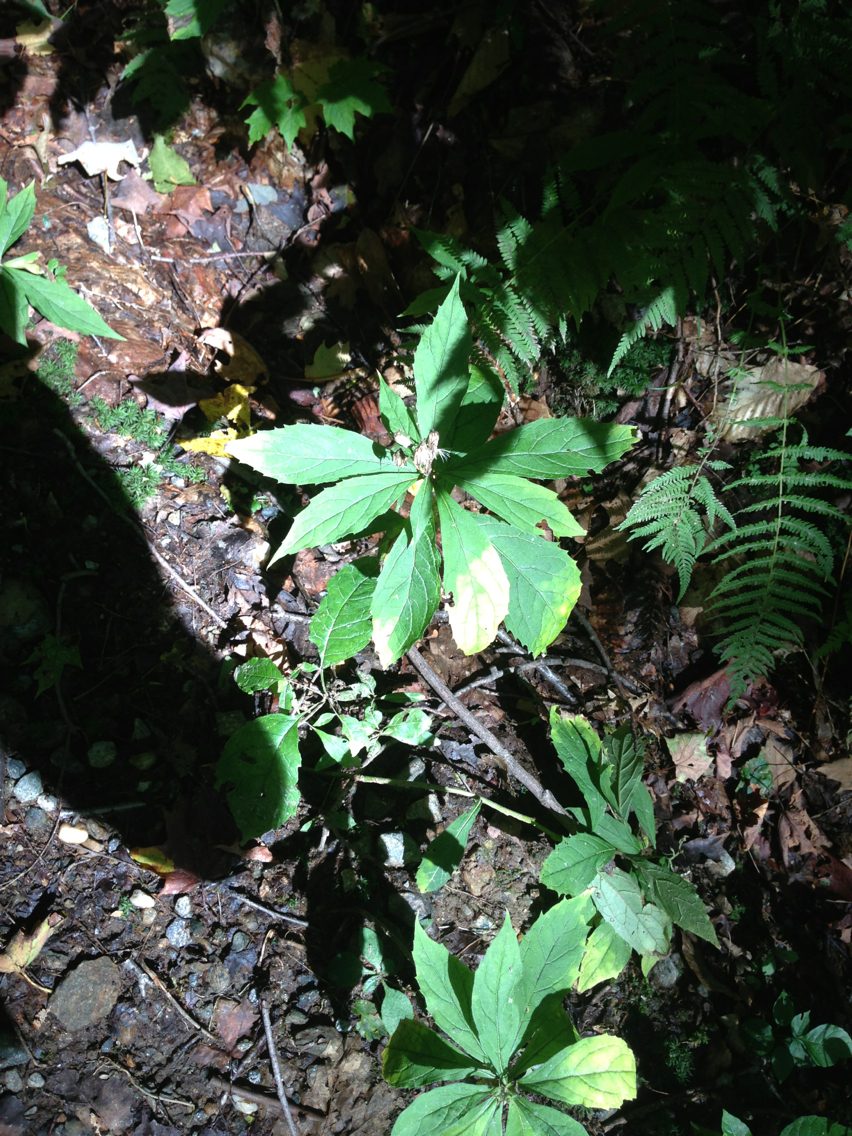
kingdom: Plantae
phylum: Tracheophyta
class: Magnoliopsida
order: Asterales
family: Asteraceae
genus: Oclemena
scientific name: Oclemena acuminata
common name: Mountain aster
